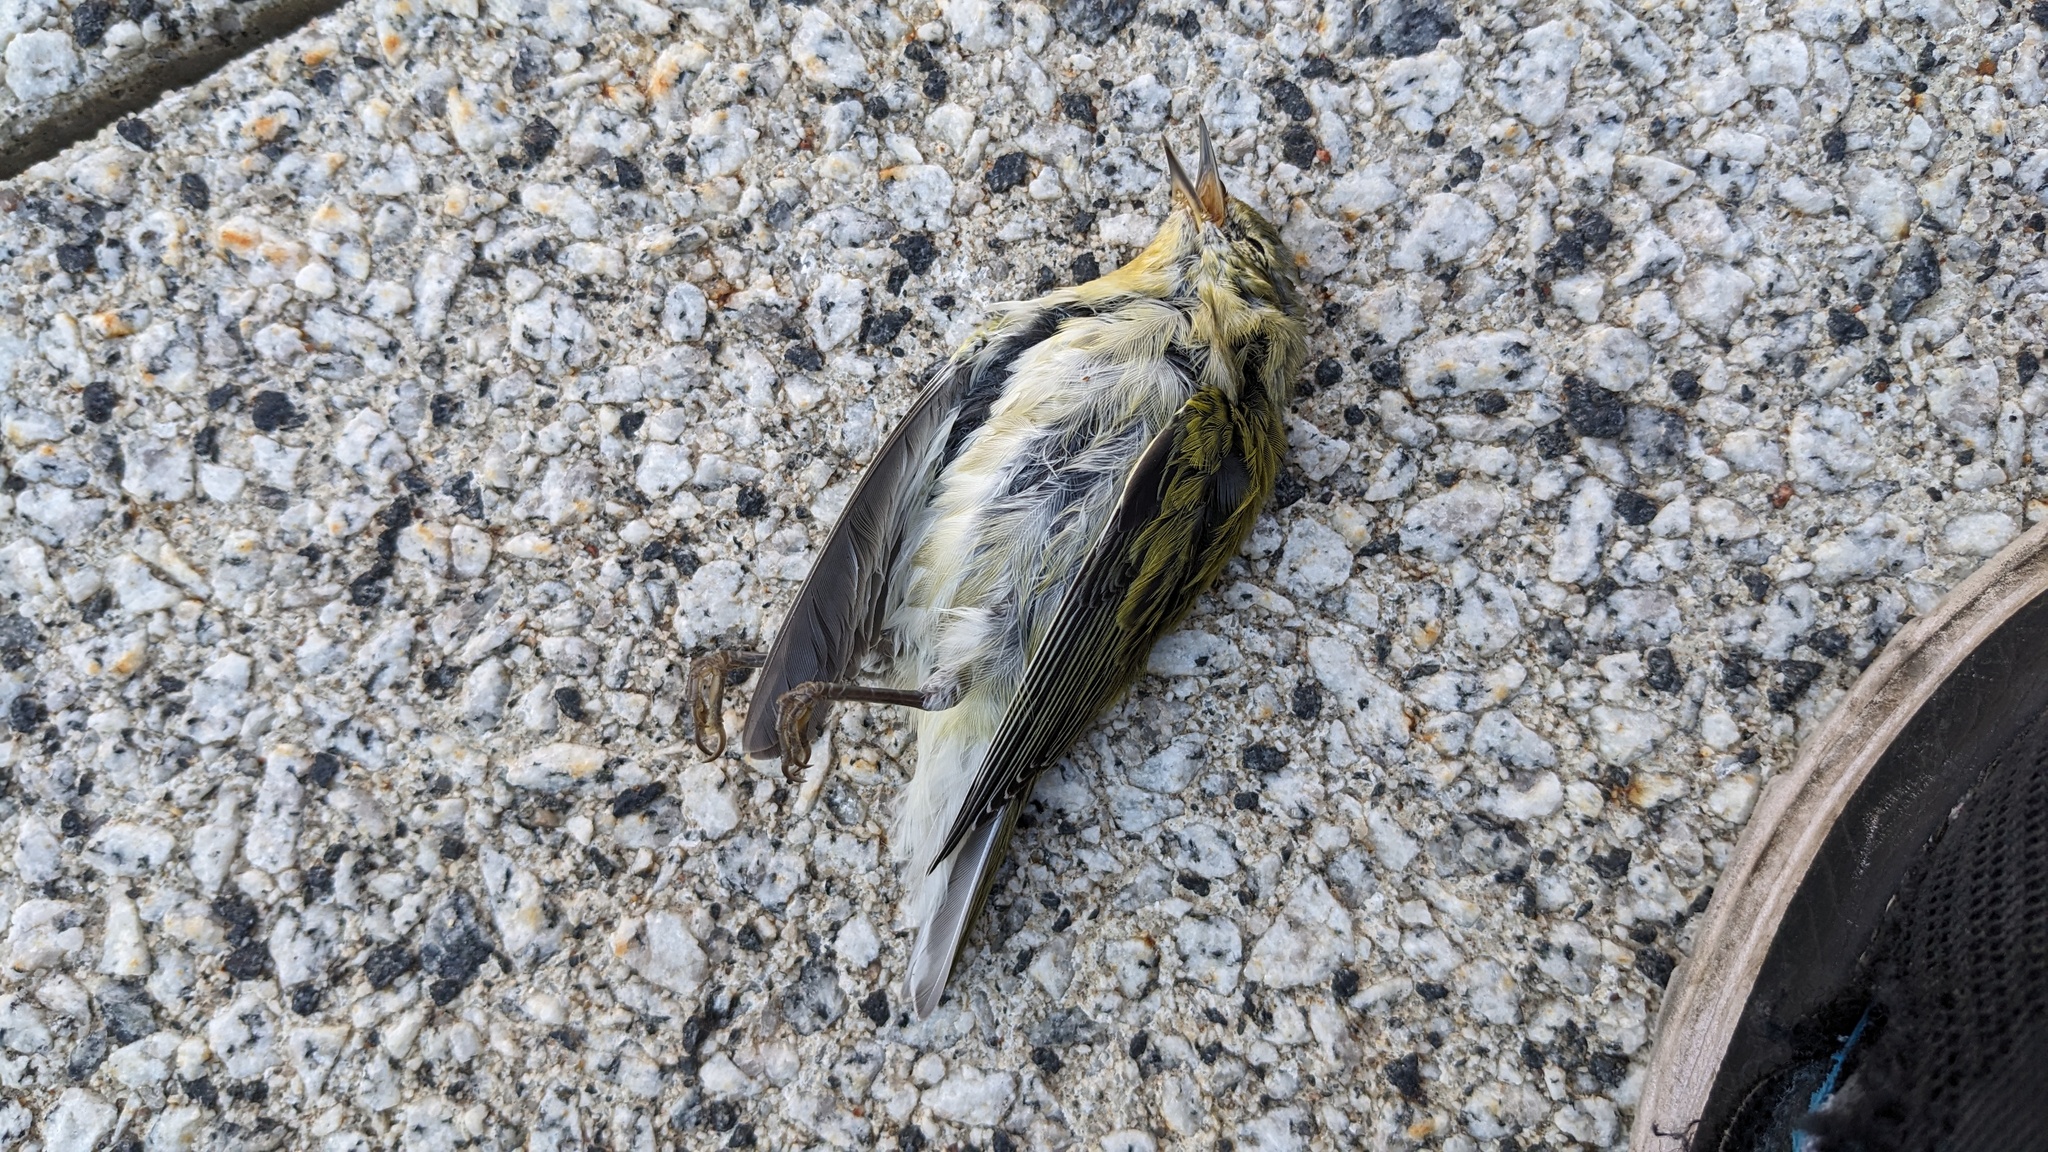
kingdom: Animalia
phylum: Chordata
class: Aves
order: Passeriformes
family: Parulidae
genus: Leiothlypis
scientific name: Leiothlypis peregrina
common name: Tennessee warbler
